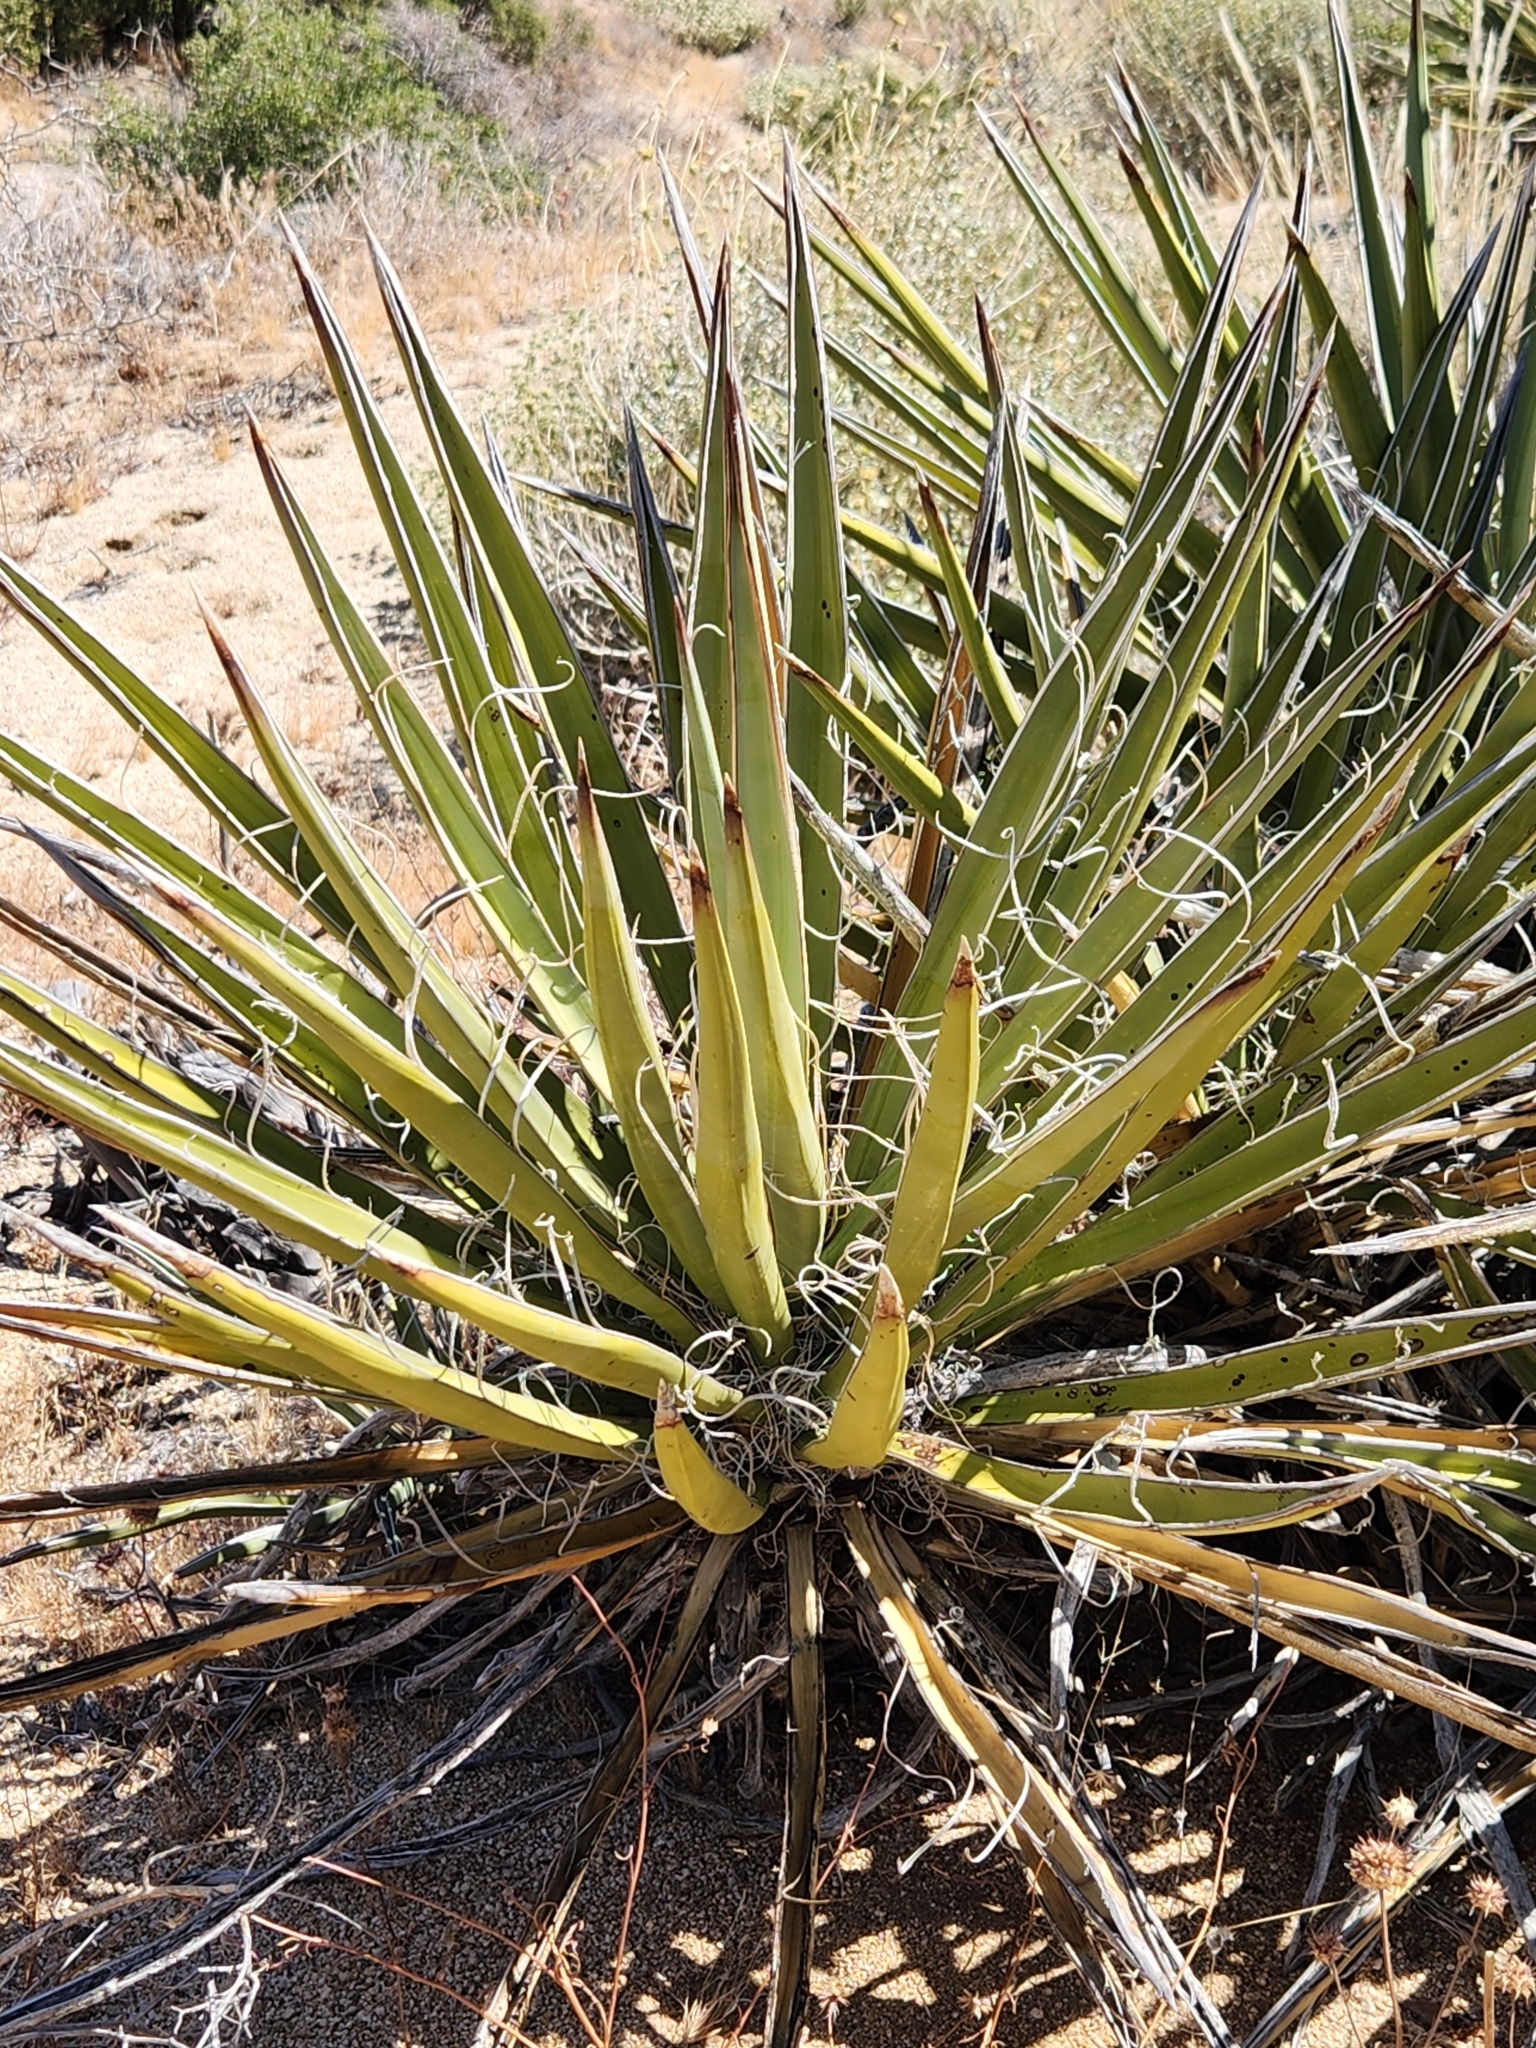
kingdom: Plantae
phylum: Tracheophyta
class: Liliopsida
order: Asparagales
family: Asparagaceae
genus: Yucca
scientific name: Yucca schidigera
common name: Mojave yucca
